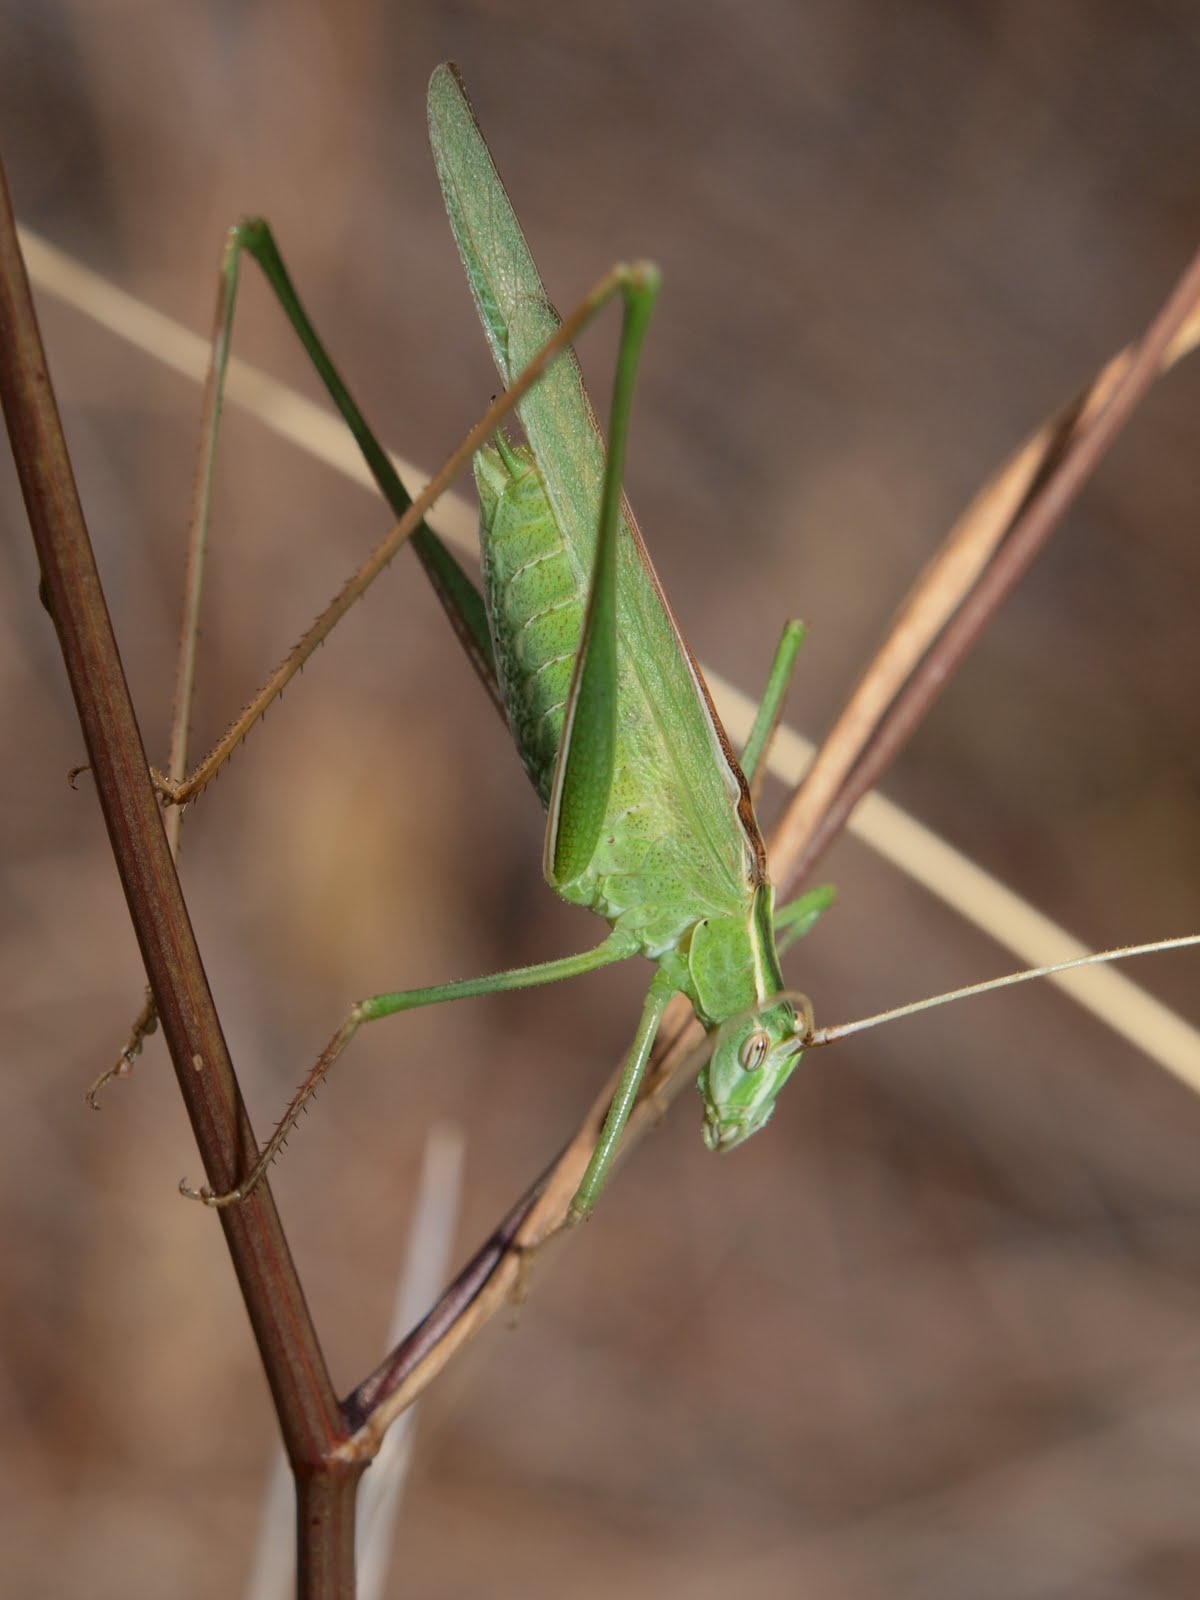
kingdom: Animalia
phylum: Arthropoda
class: Insecta
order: Orthoptera
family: Tettigoniidae
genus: Tylopsis
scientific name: Tylopsis lilifolia
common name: Lily bush-cricket
